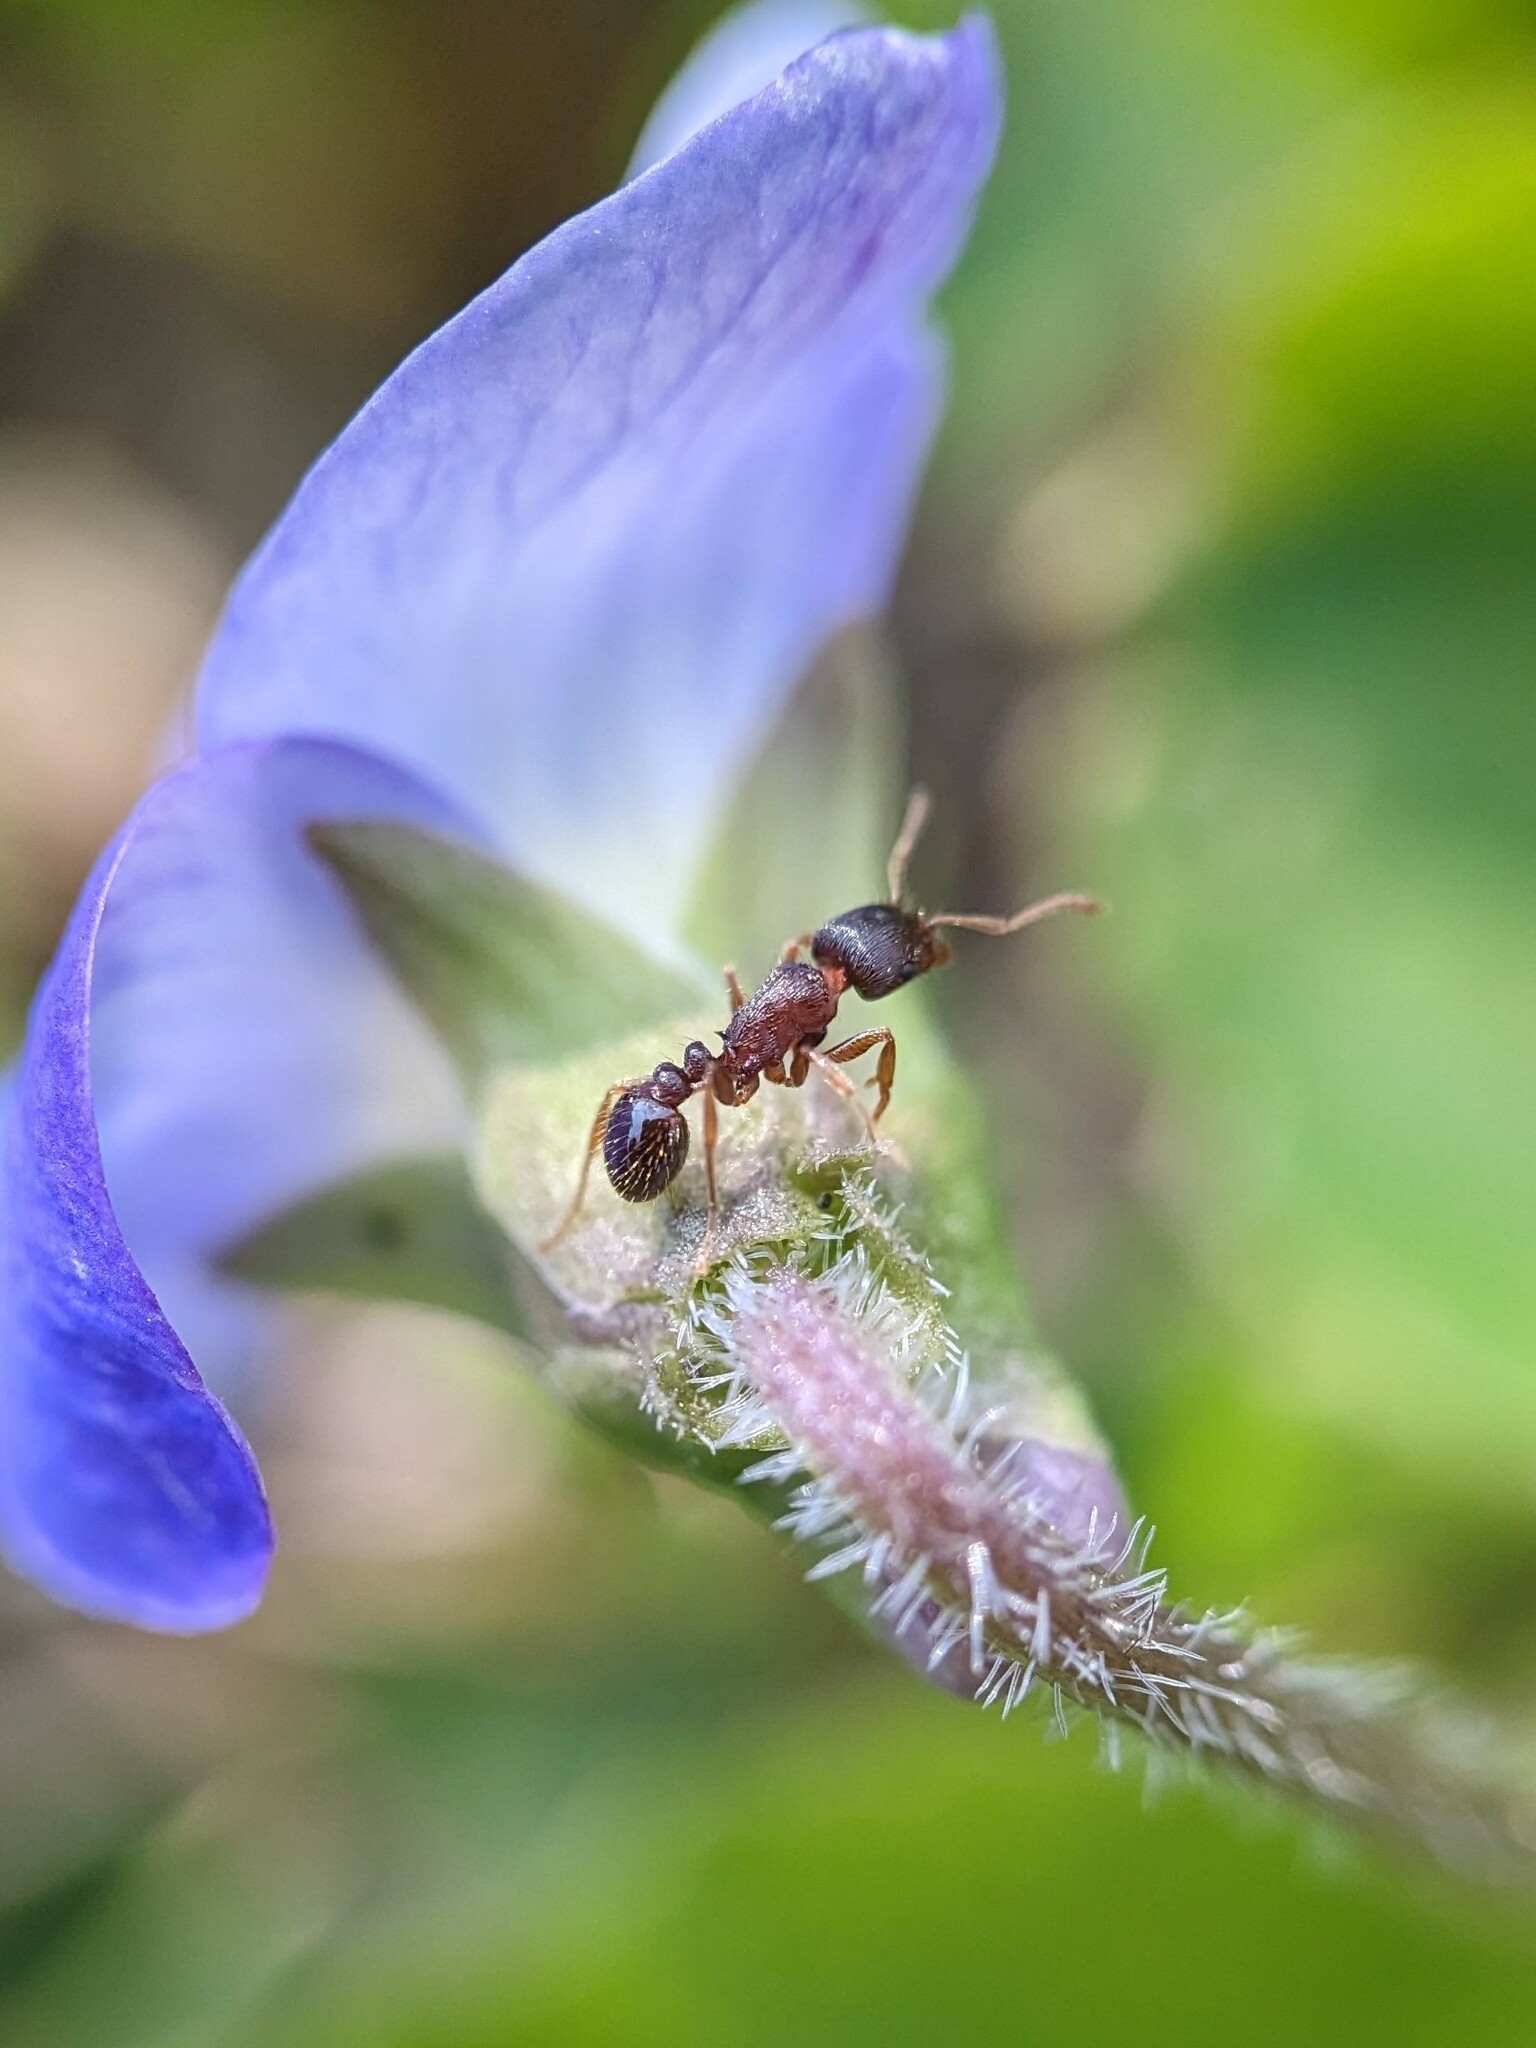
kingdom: Animalia
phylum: Arthropoda
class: Insecta
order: Hymenoptera
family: Formicidae
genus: Tetramorium
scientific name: Tetramorium immigrans
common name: Pavement ant
